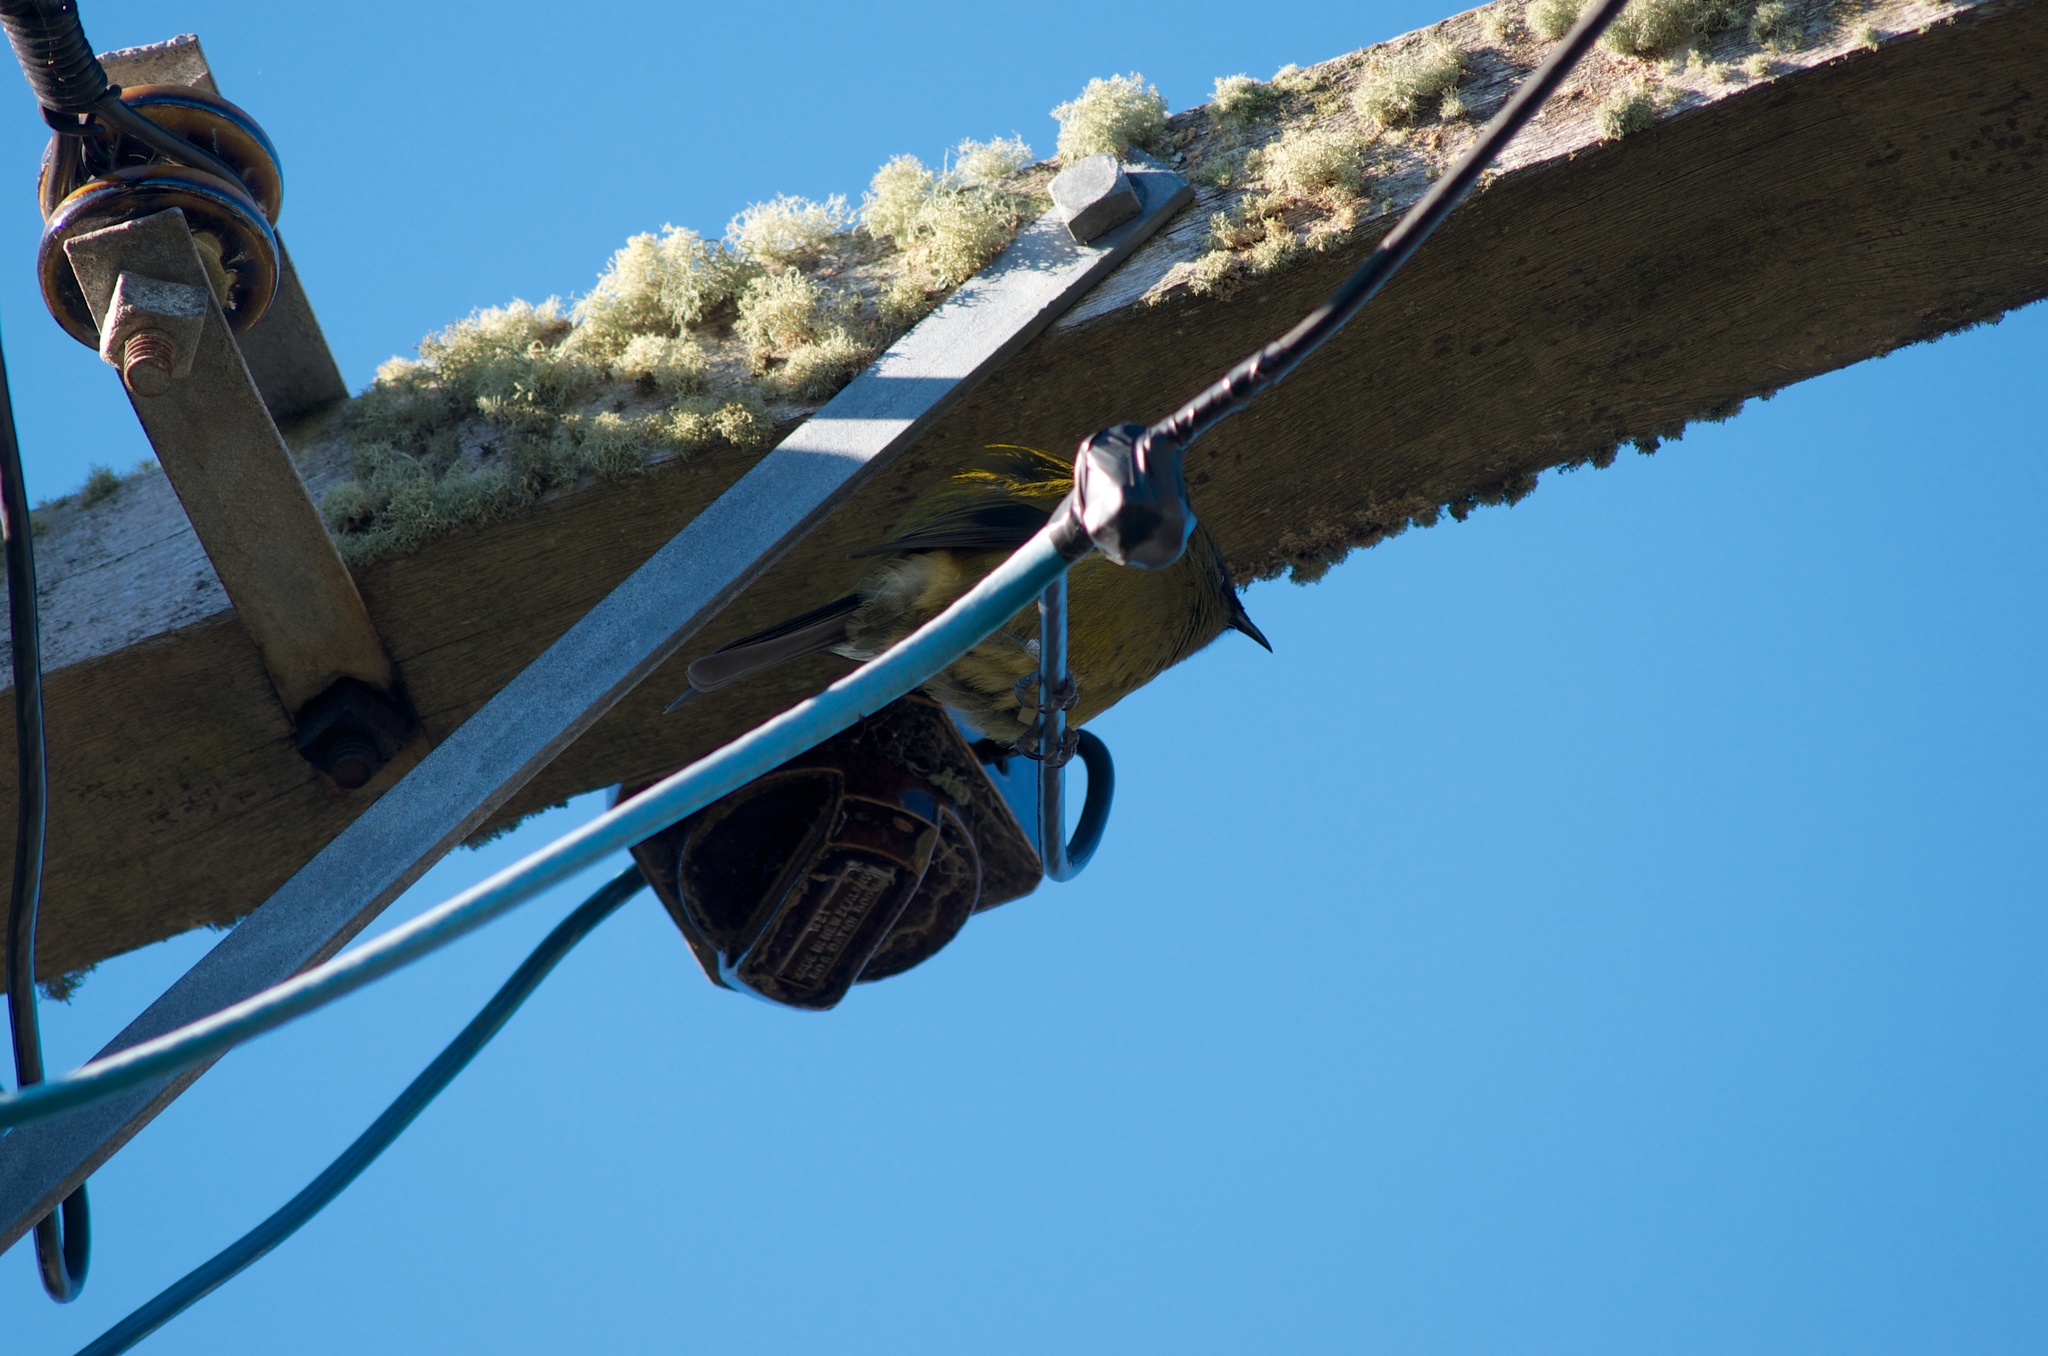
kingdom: Animalia
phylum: Chordata
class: Aves
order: Passeriformes
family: Meliphagidae
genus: Anthornis
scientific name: Anthornis melanura
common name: New zealand bellbird
